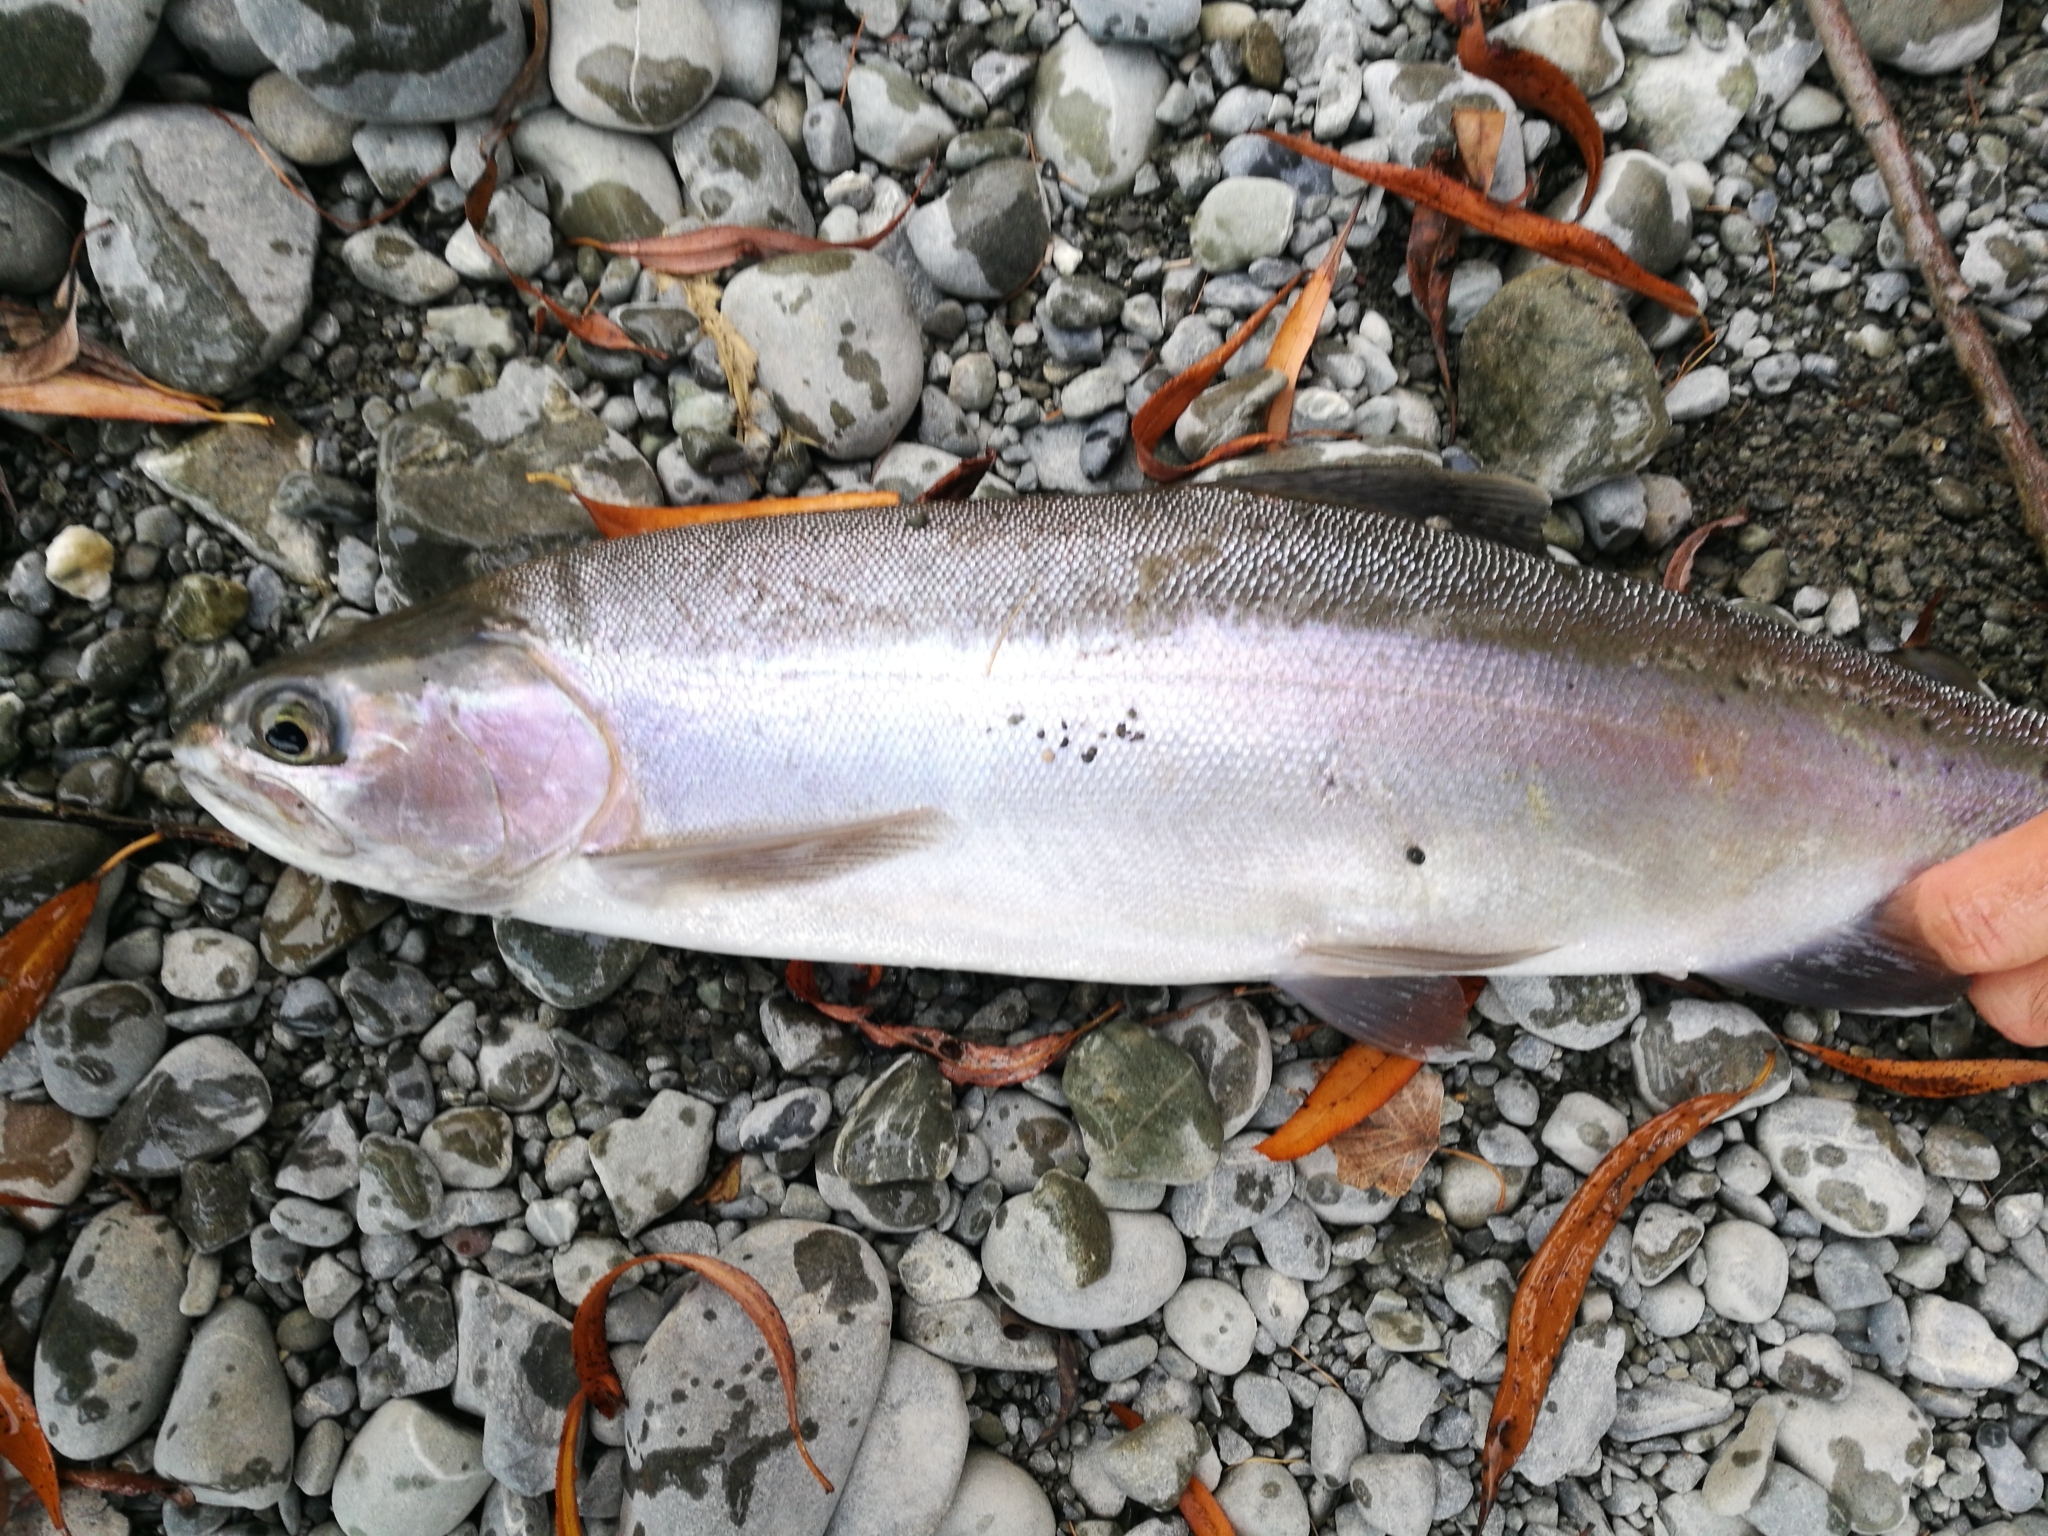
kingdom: Animalia
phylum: Chordata
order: Salmoniformes
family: Salmonidae
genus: Oncorhynchus
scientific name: Oncorhynchus mykiss
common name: Rainbow trout
